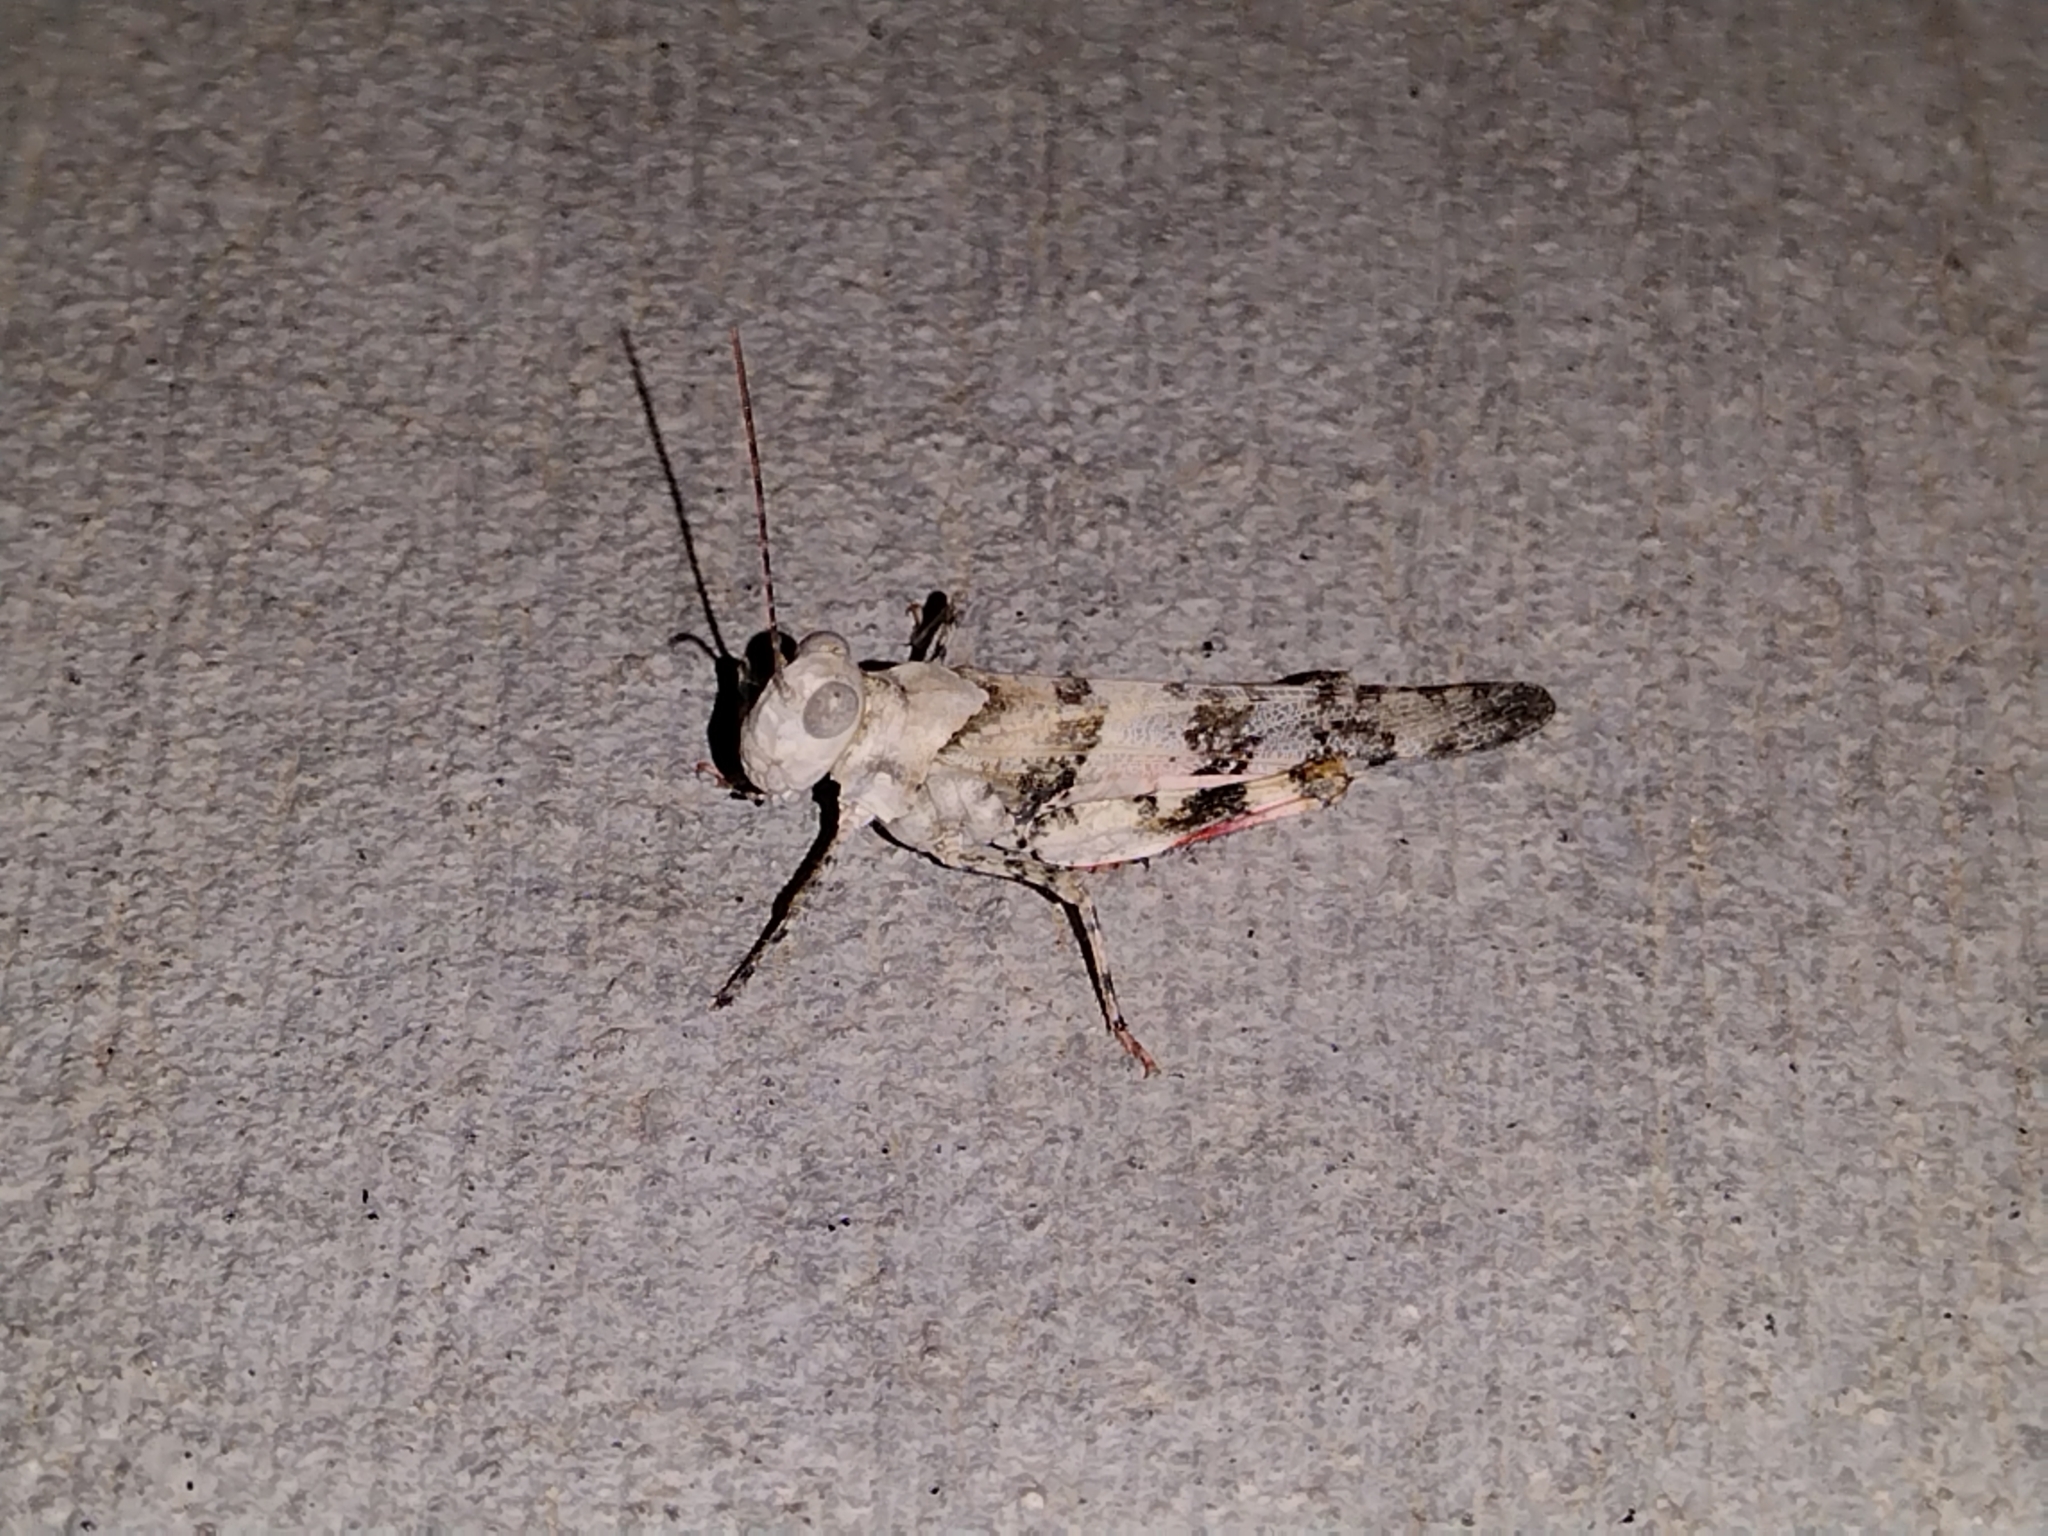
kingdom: Animalia
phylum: Arthropoda
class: Insecta
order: Orthoptera
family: Acrididae
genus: Trimerotropis
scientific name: Trimerotropis californica
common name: California band-winged grasshopper
